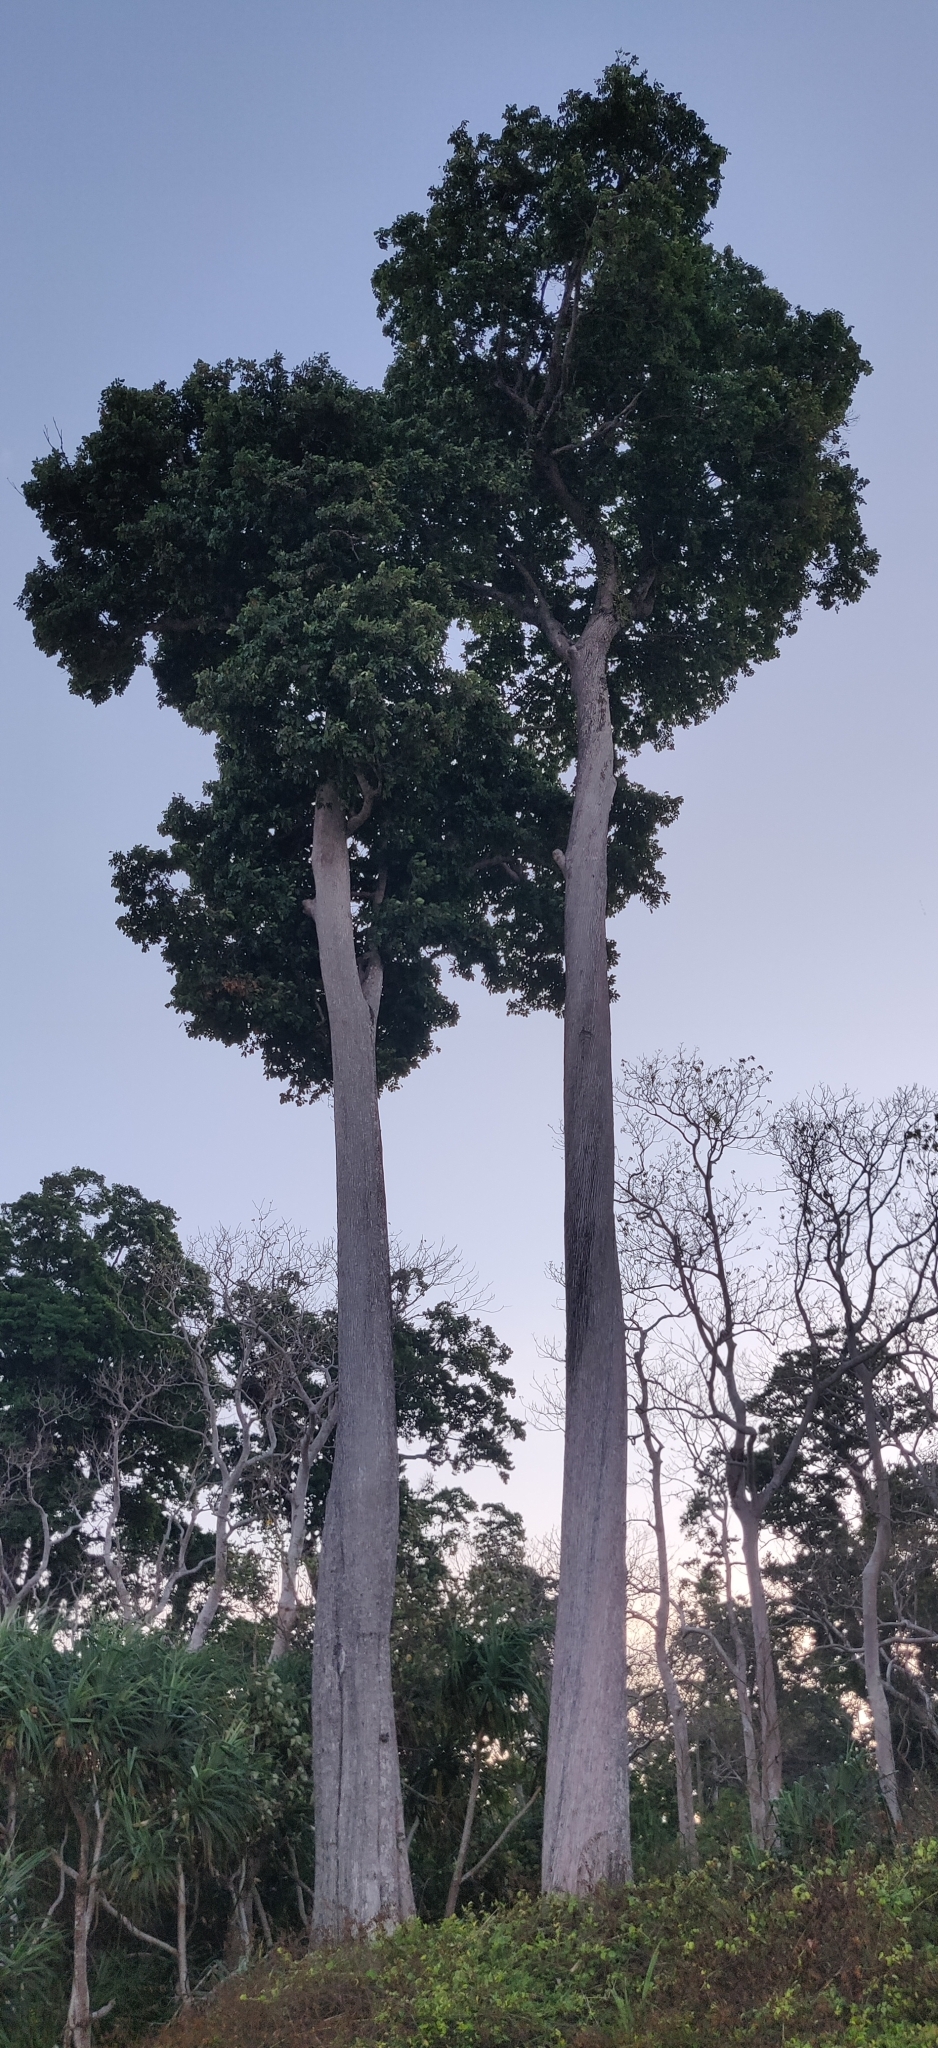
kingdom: Plantae
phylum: Tracheophyta
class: Magnoliopsida
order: Ericales
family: Sapotaceae
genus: Manilkara
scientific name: Manilkara littoralis
